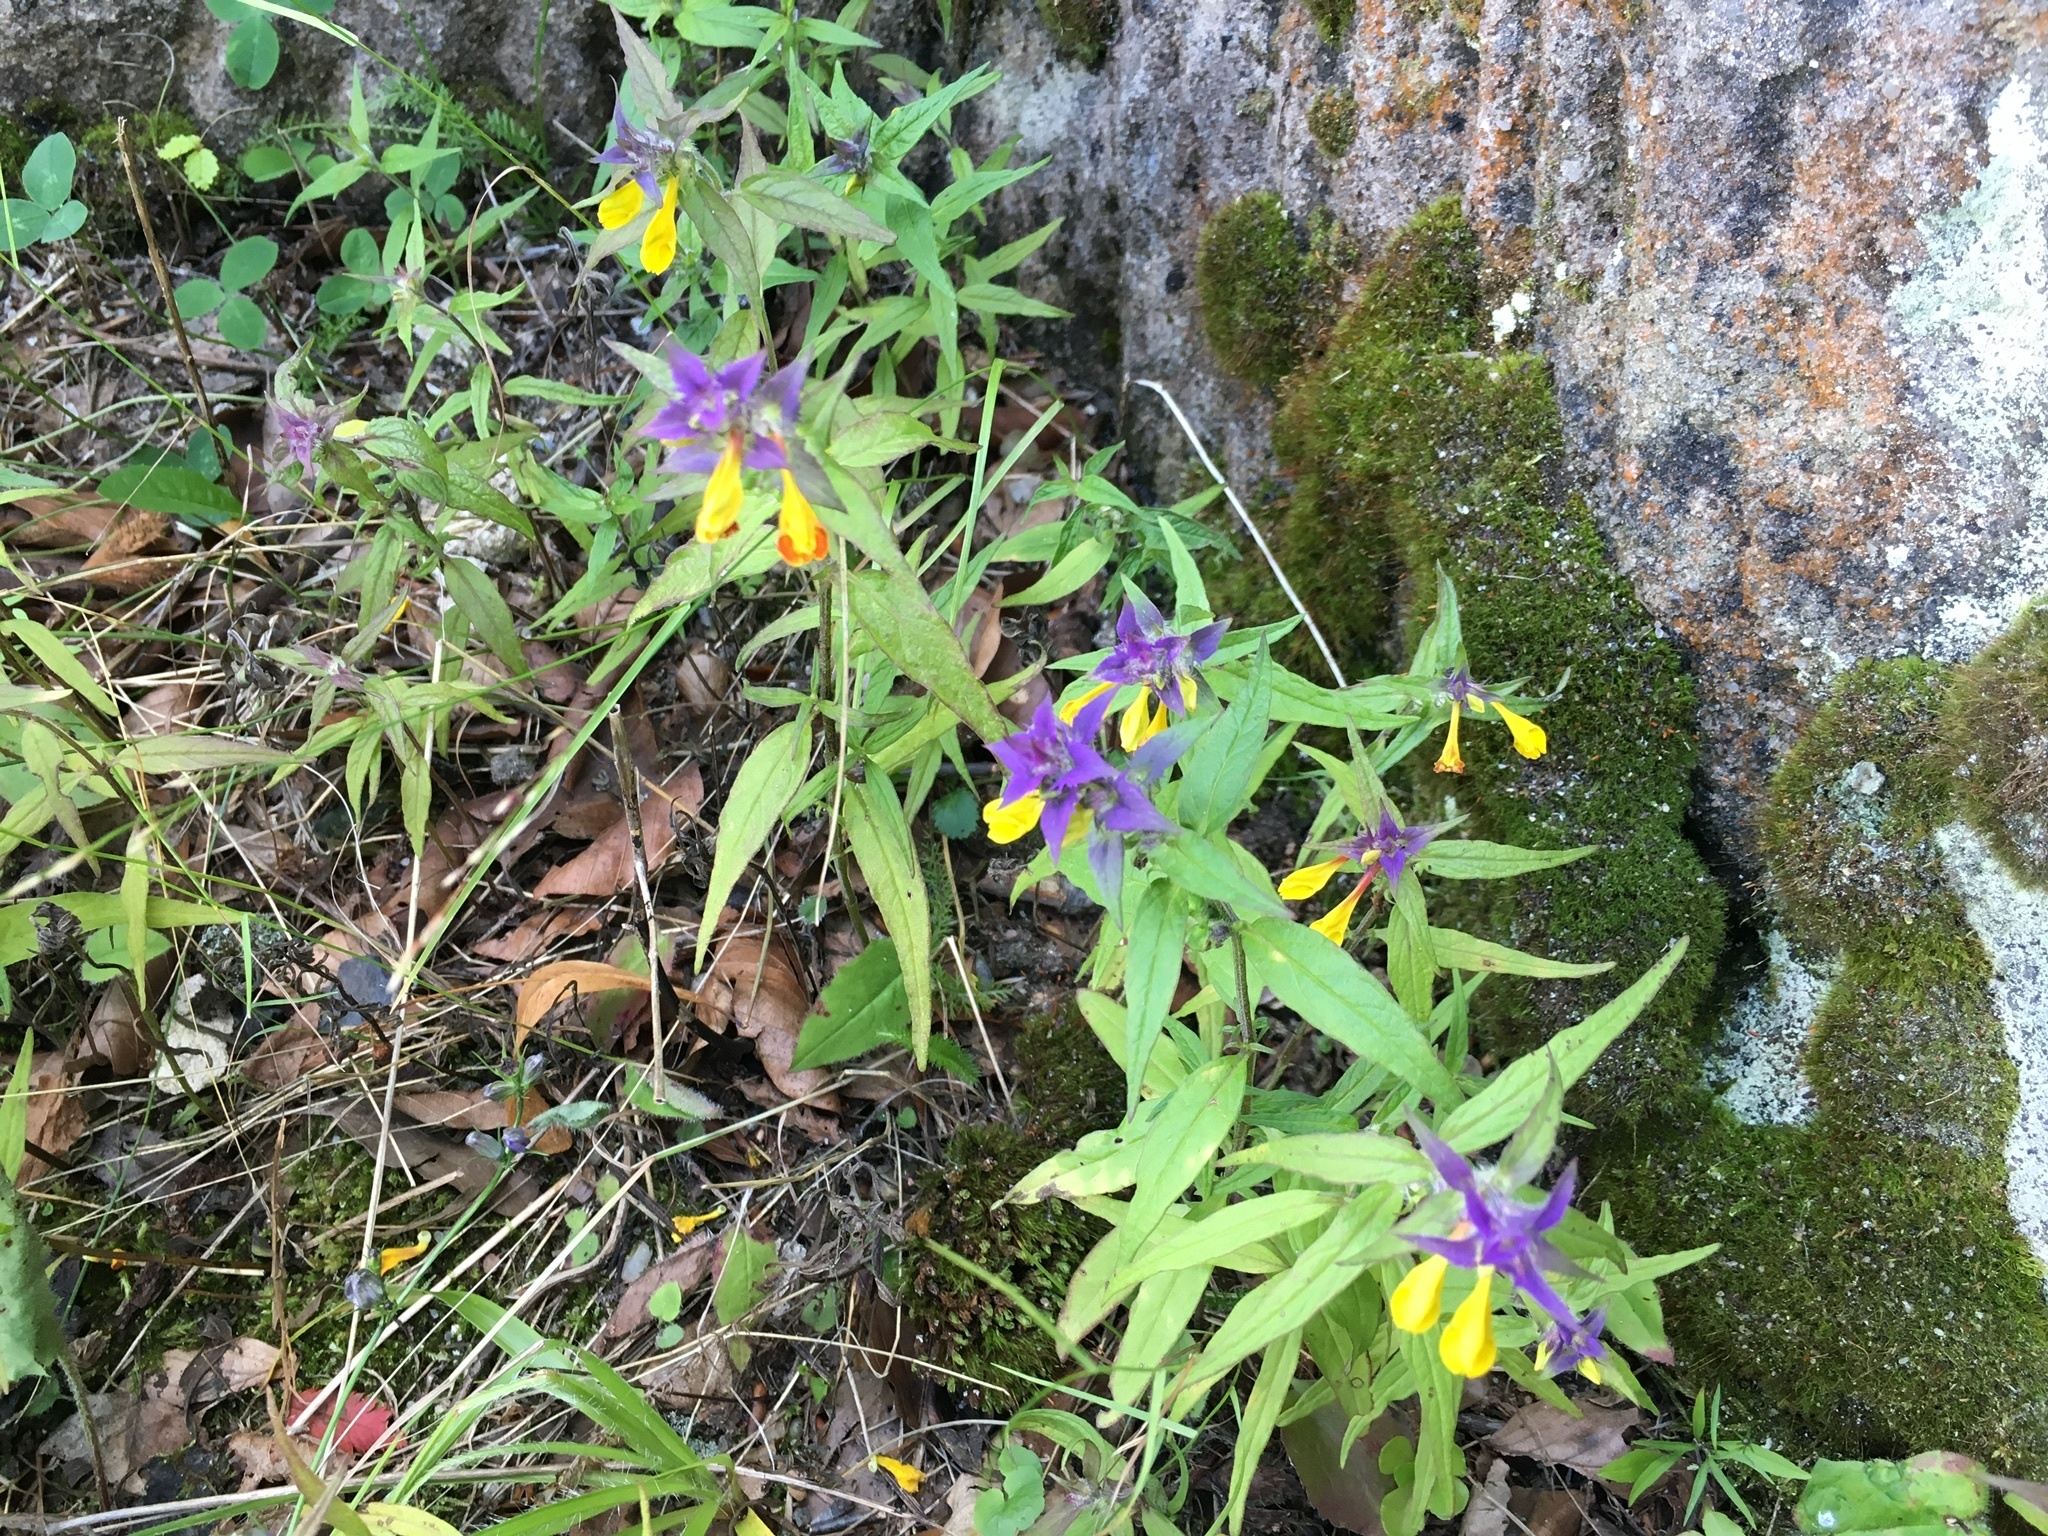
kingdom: Plantae
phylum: Tracheophyta
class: Magnoliopsida
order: Lamiales
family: Orobanchaceae
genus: Melampyrum
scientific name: Melampyrum nemorosum
